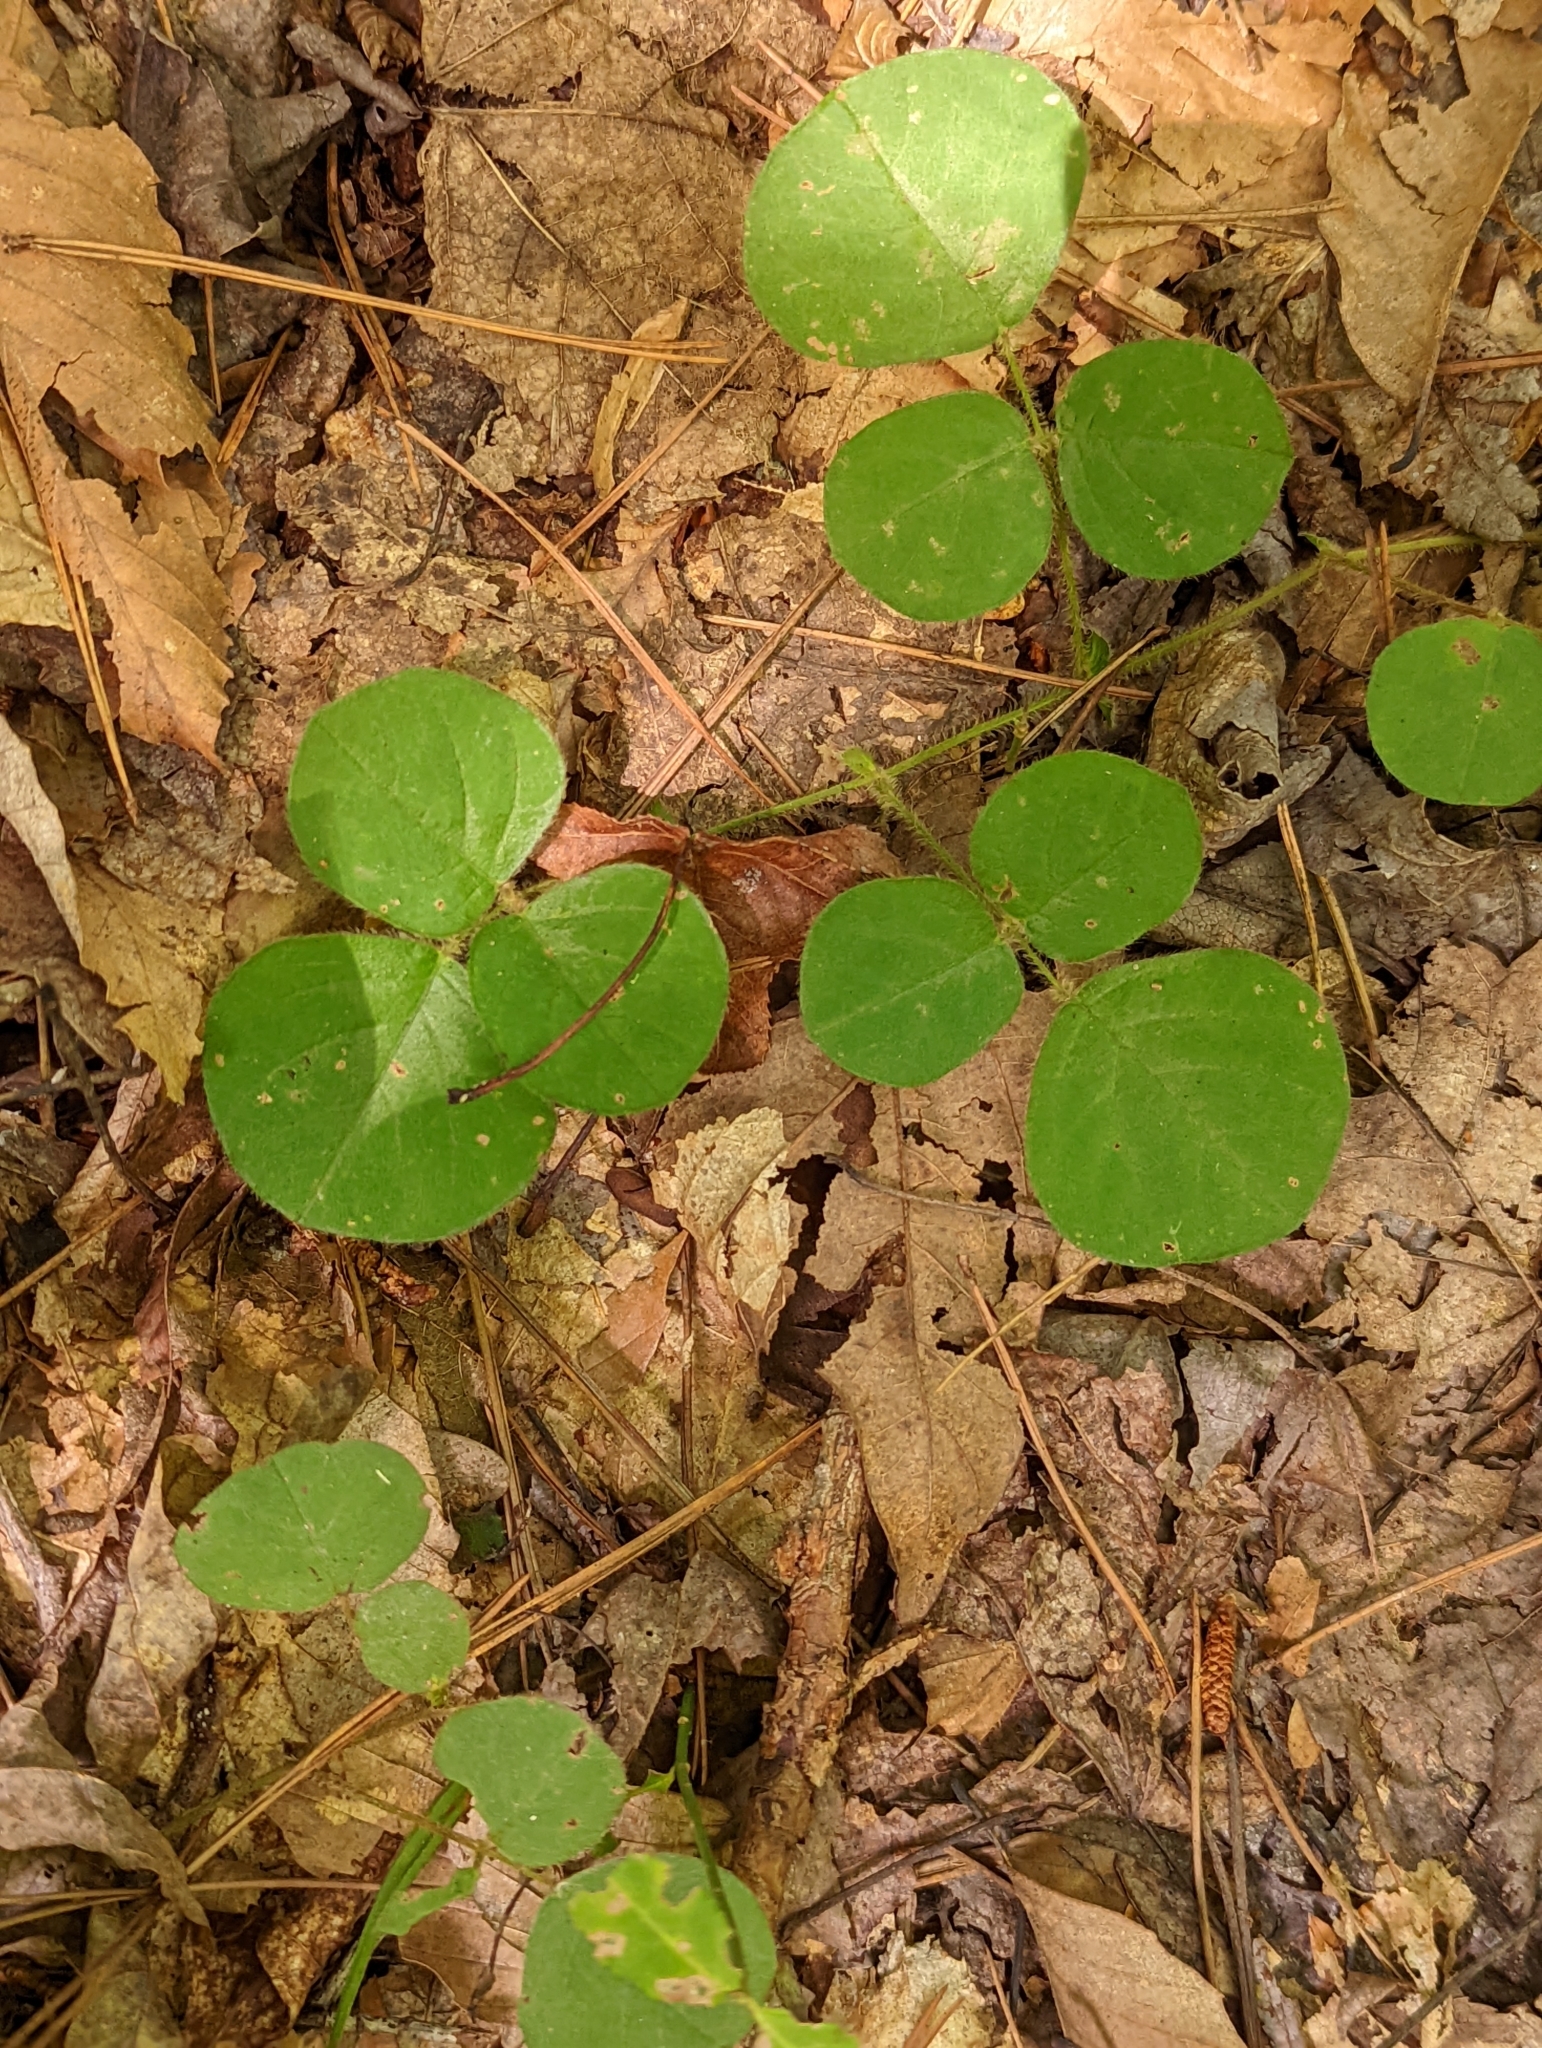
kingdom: Plantae
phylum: Tracheophyta
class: Magnoliopsida
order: Fabales
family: Fabaceae
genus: Desmodium
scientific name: Desmodium rotundifolium
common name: Dollarleaf
